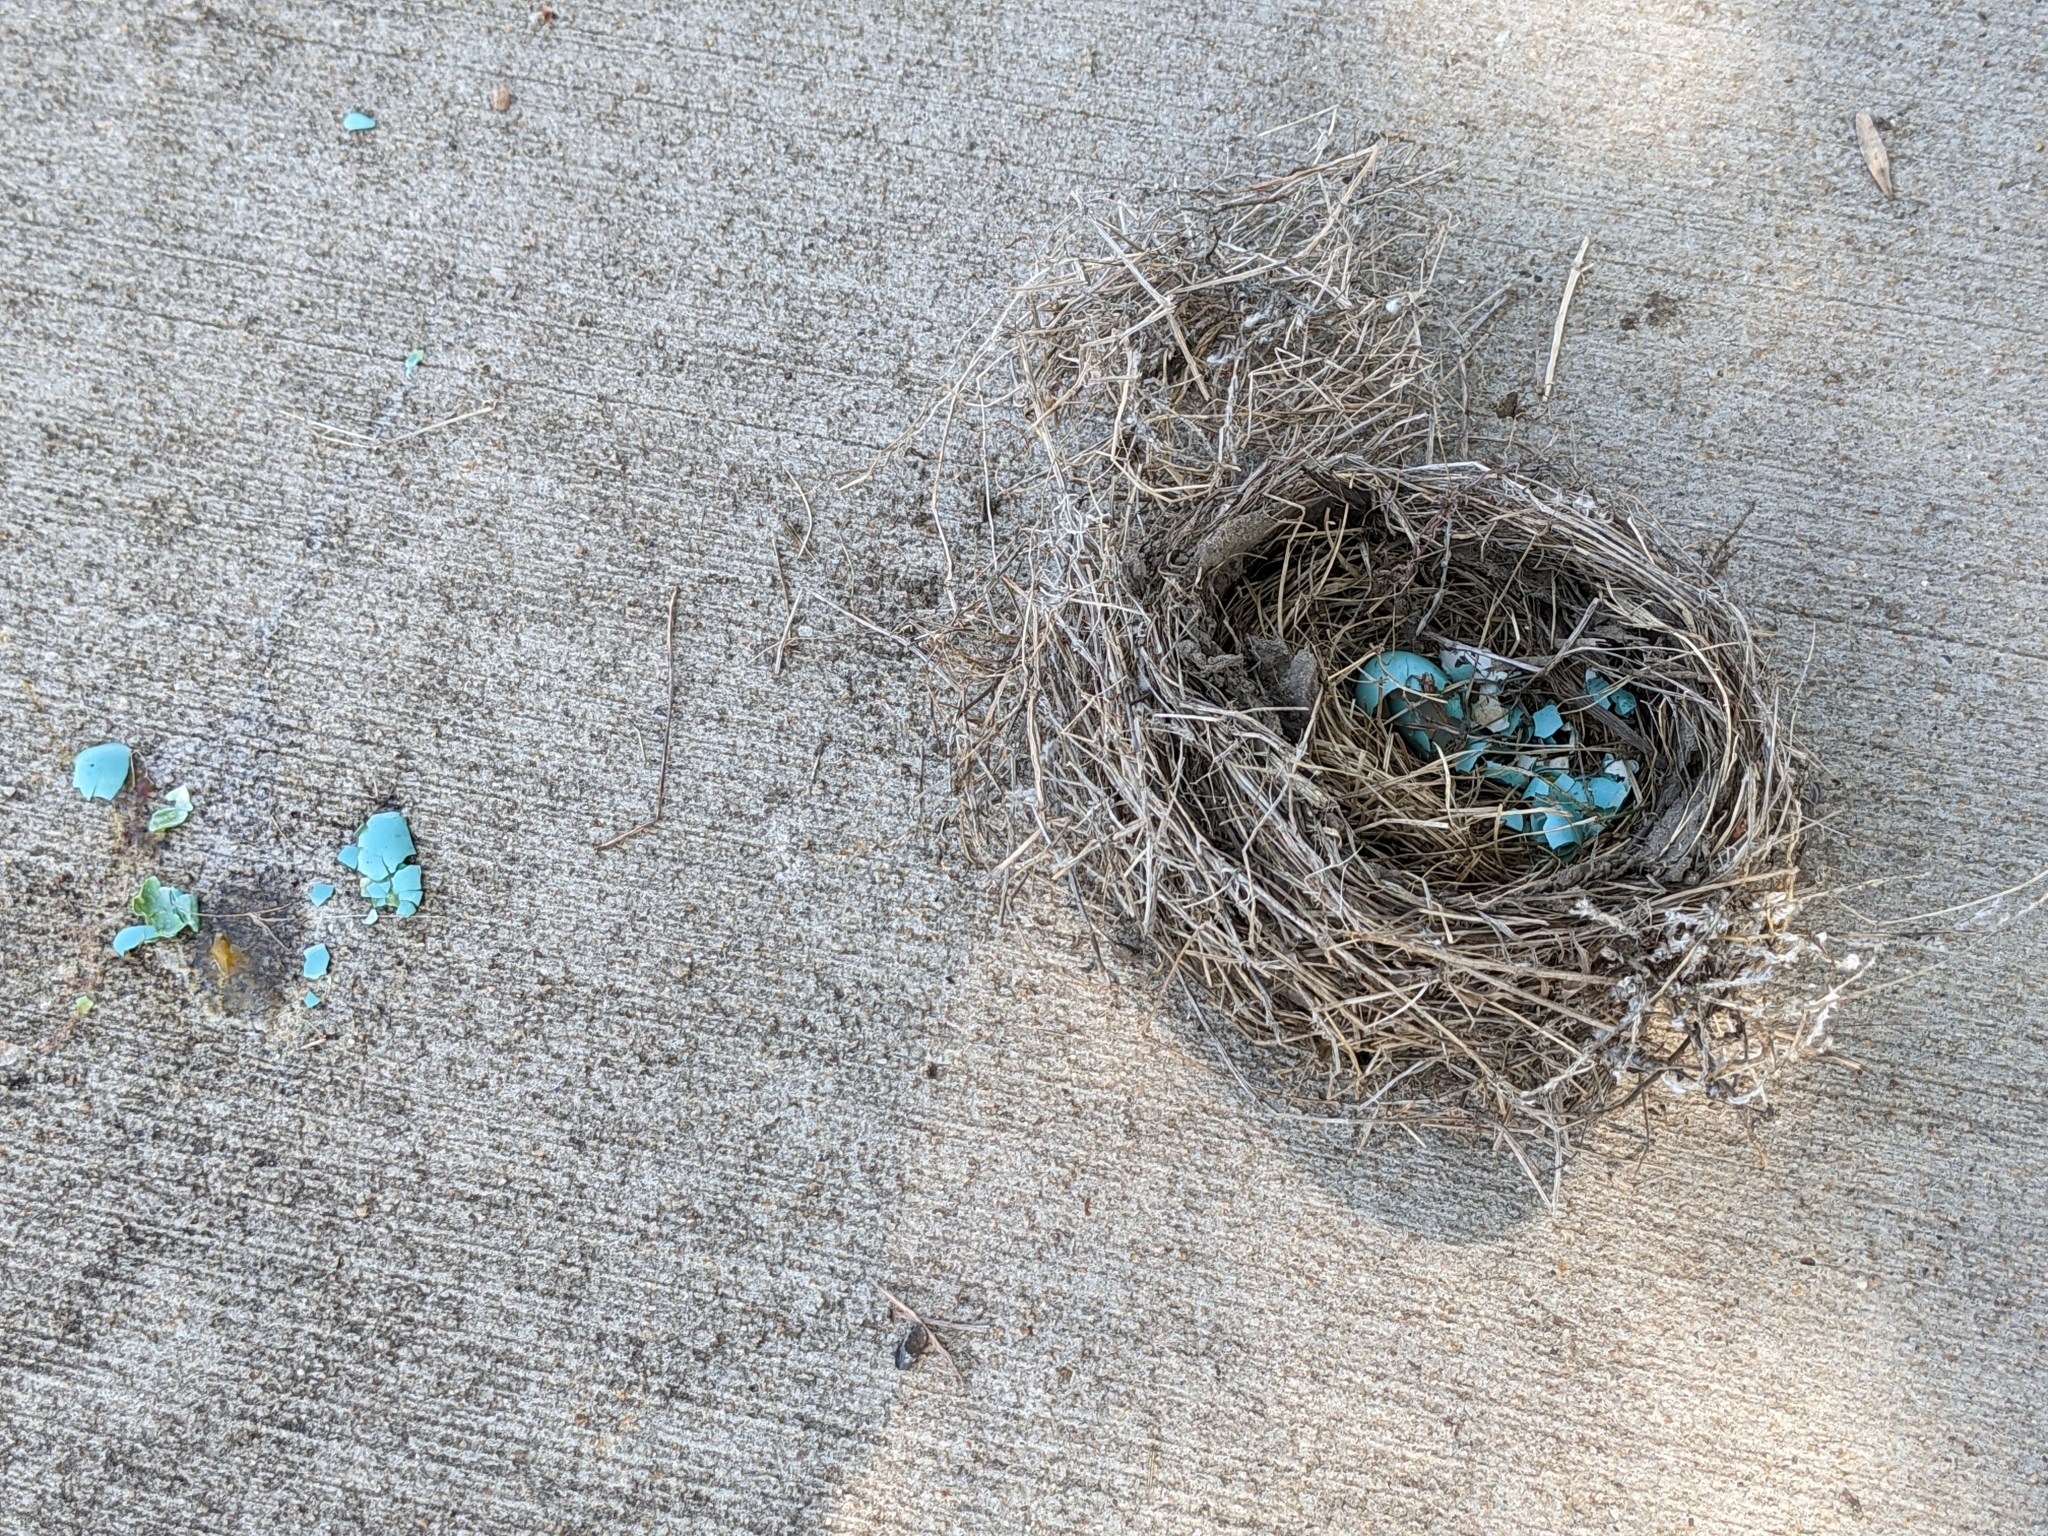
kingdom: Animalia
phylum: Chordata
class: Aves
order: Passeriformes
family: Turdidae
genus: Turdus
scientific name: Turdus migratorius
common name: American robin
